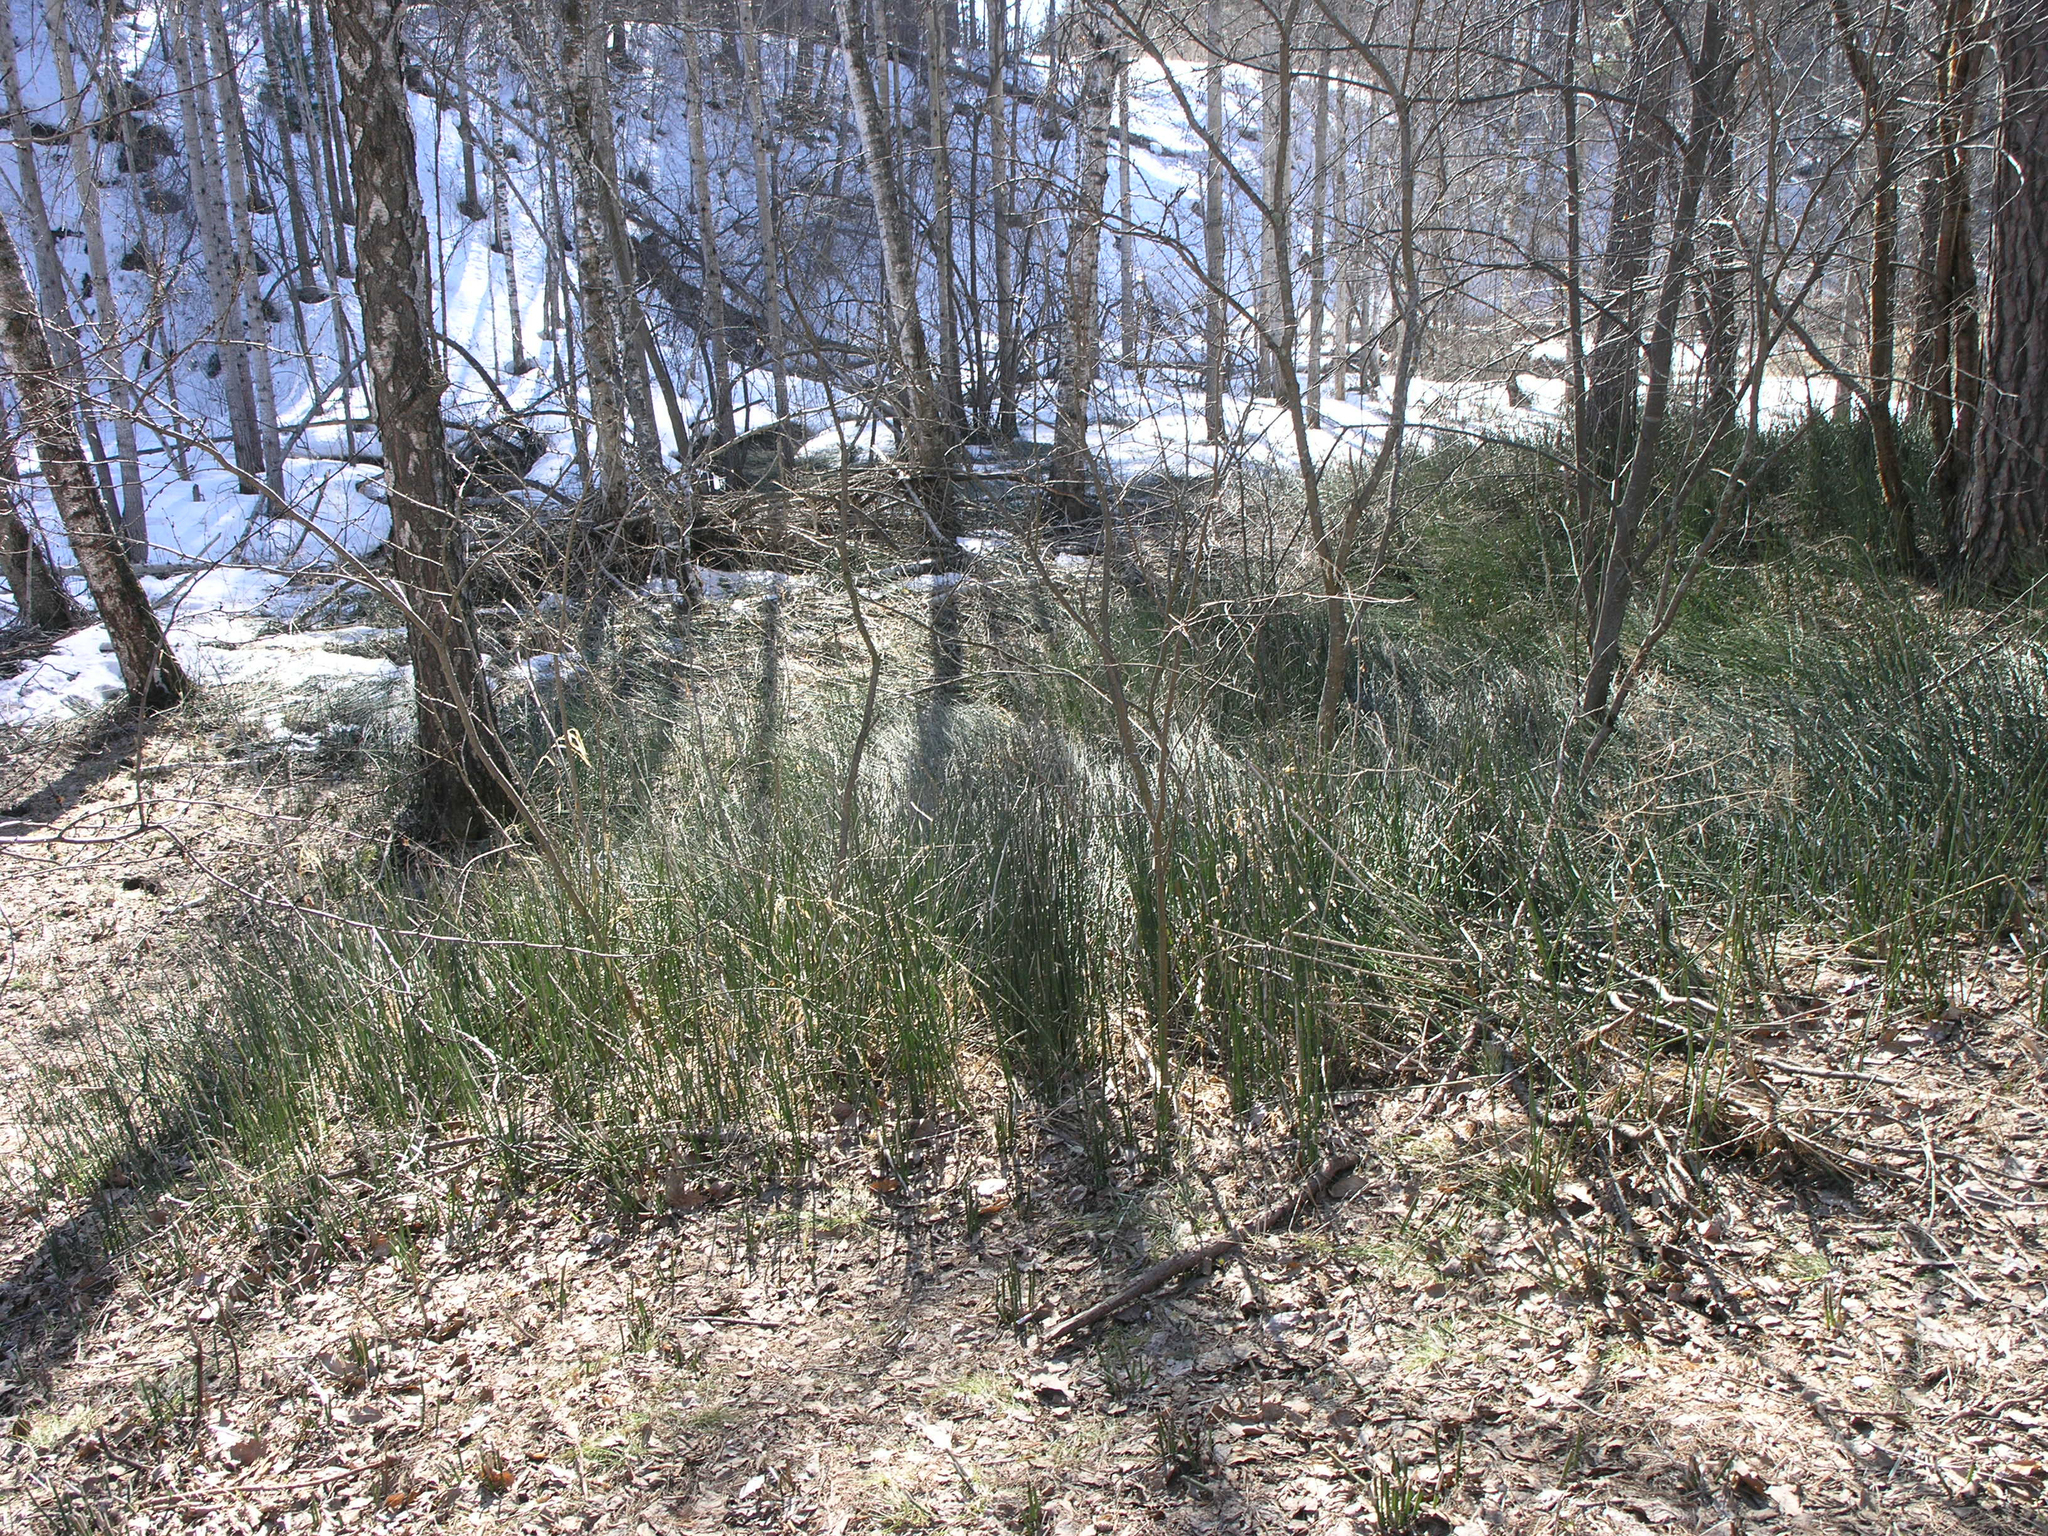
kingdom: Plantae
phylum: Tracheophyta
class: Polypodiopsida
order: Equisetales
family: Equisetaceae
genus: Equisetum
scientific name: Equisetum hyemale
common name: Rough horsetail
